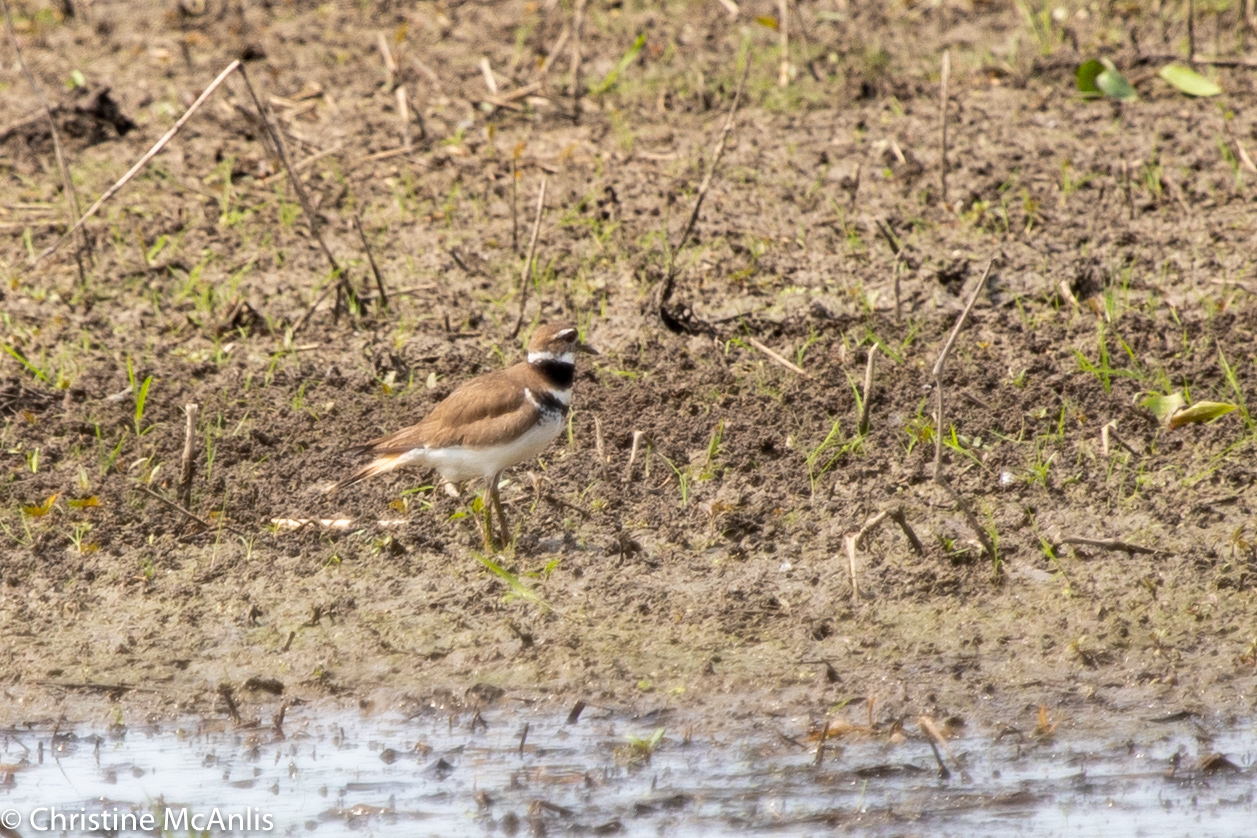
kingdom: Animalia
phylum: Chordata
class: Aves
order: Charadriiformes
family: Charadriidae
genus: Charadrius
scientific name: Charadrius vociferus
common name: Killdeer
